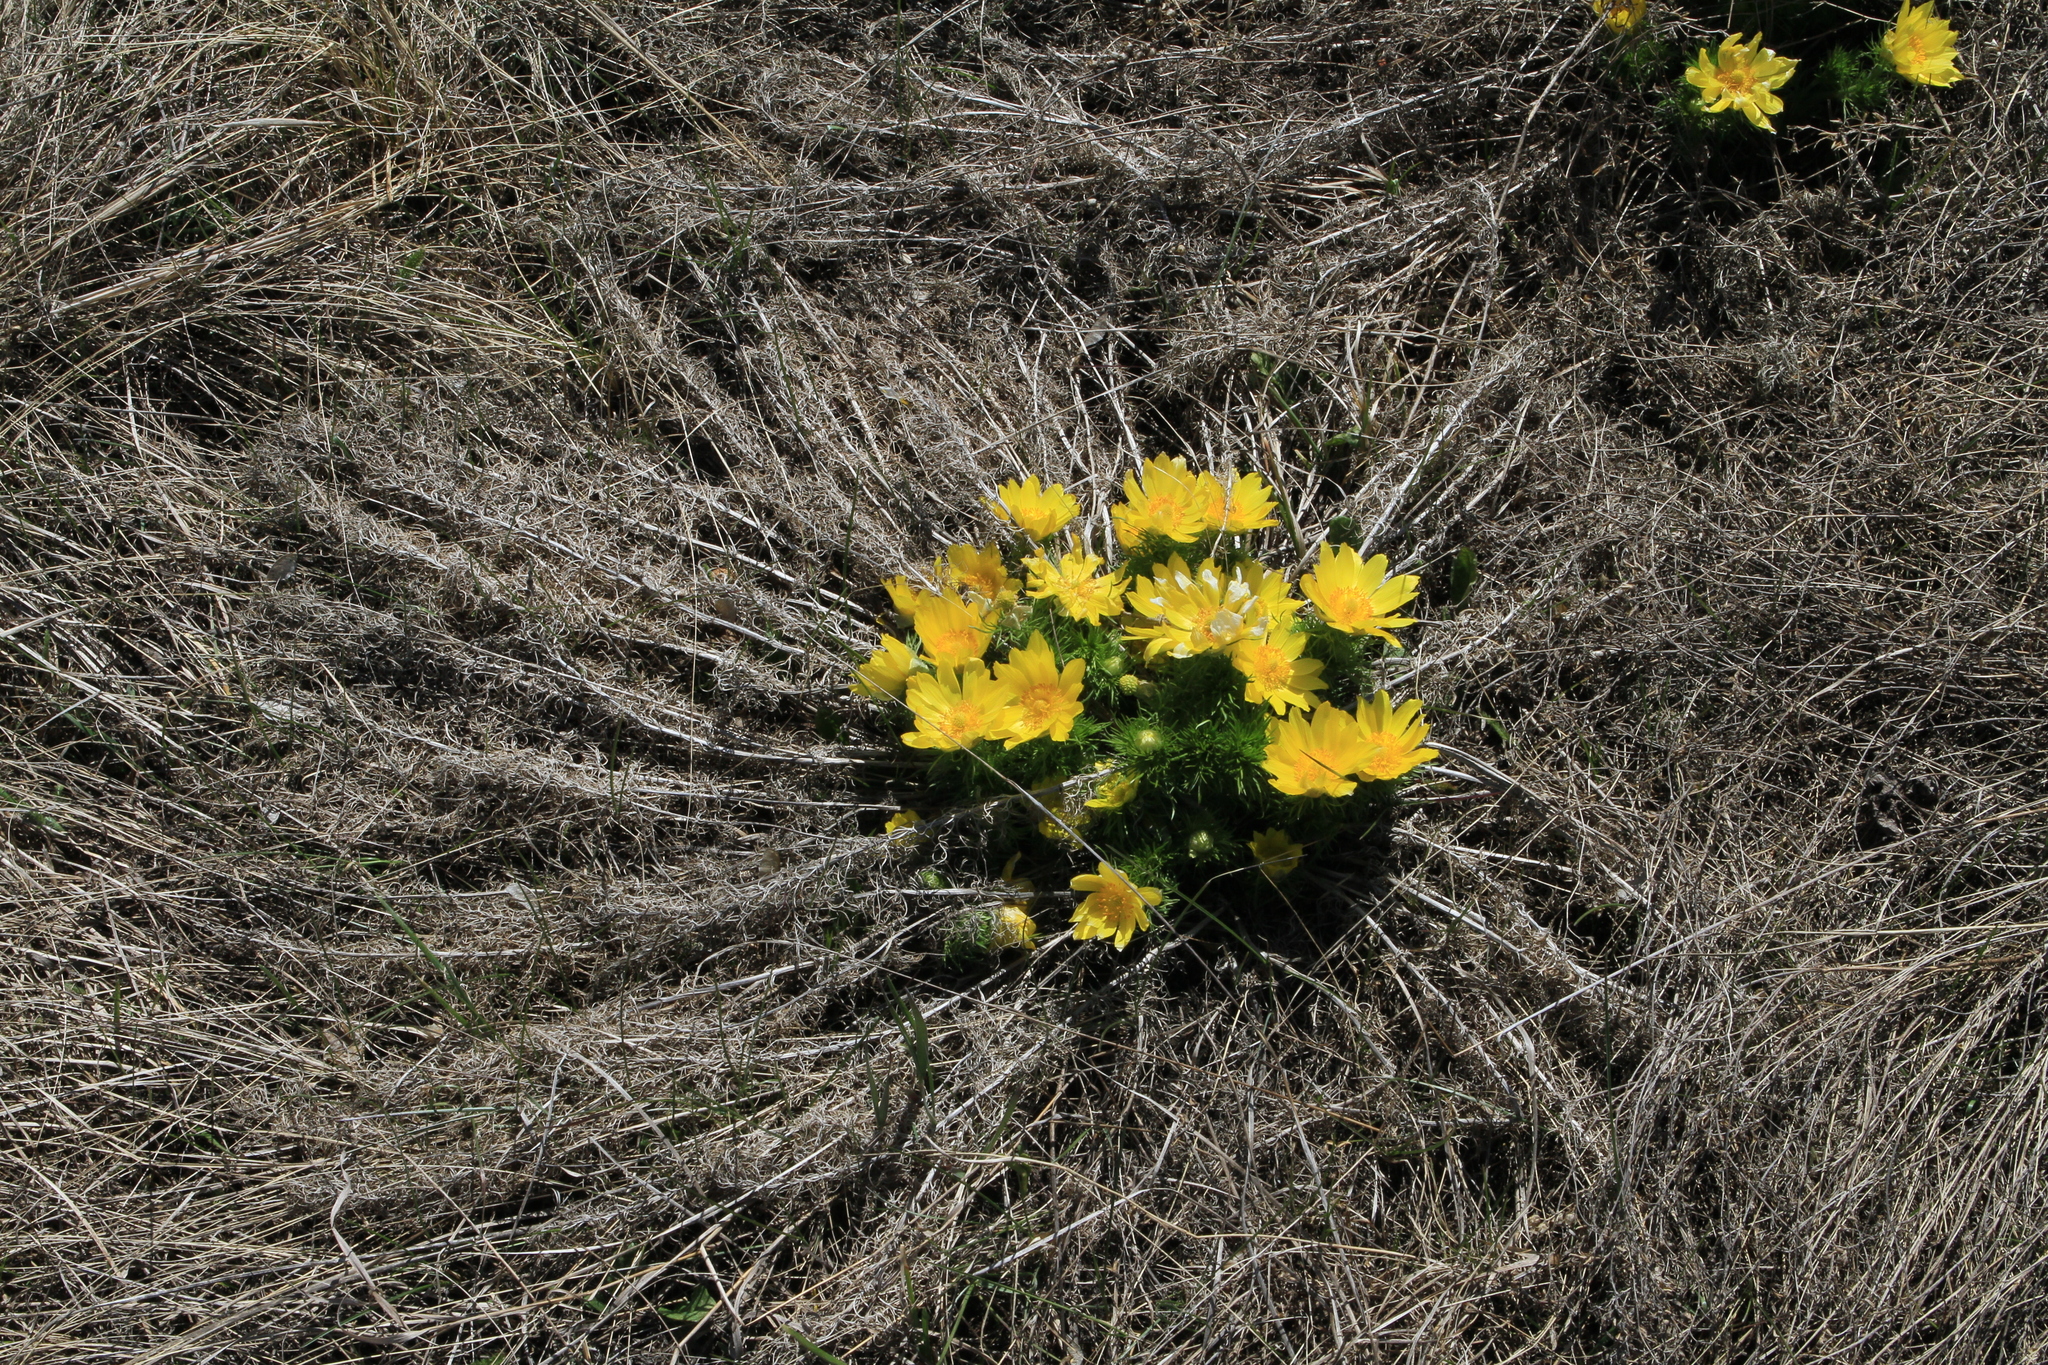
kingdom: Plantae
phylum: Tracheophyta
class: Magnoliopsida
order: Ranunculales
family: Ranunculaceae
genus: Adonis
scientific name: Adonis vernalis
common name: Yellow pheasants-eye
